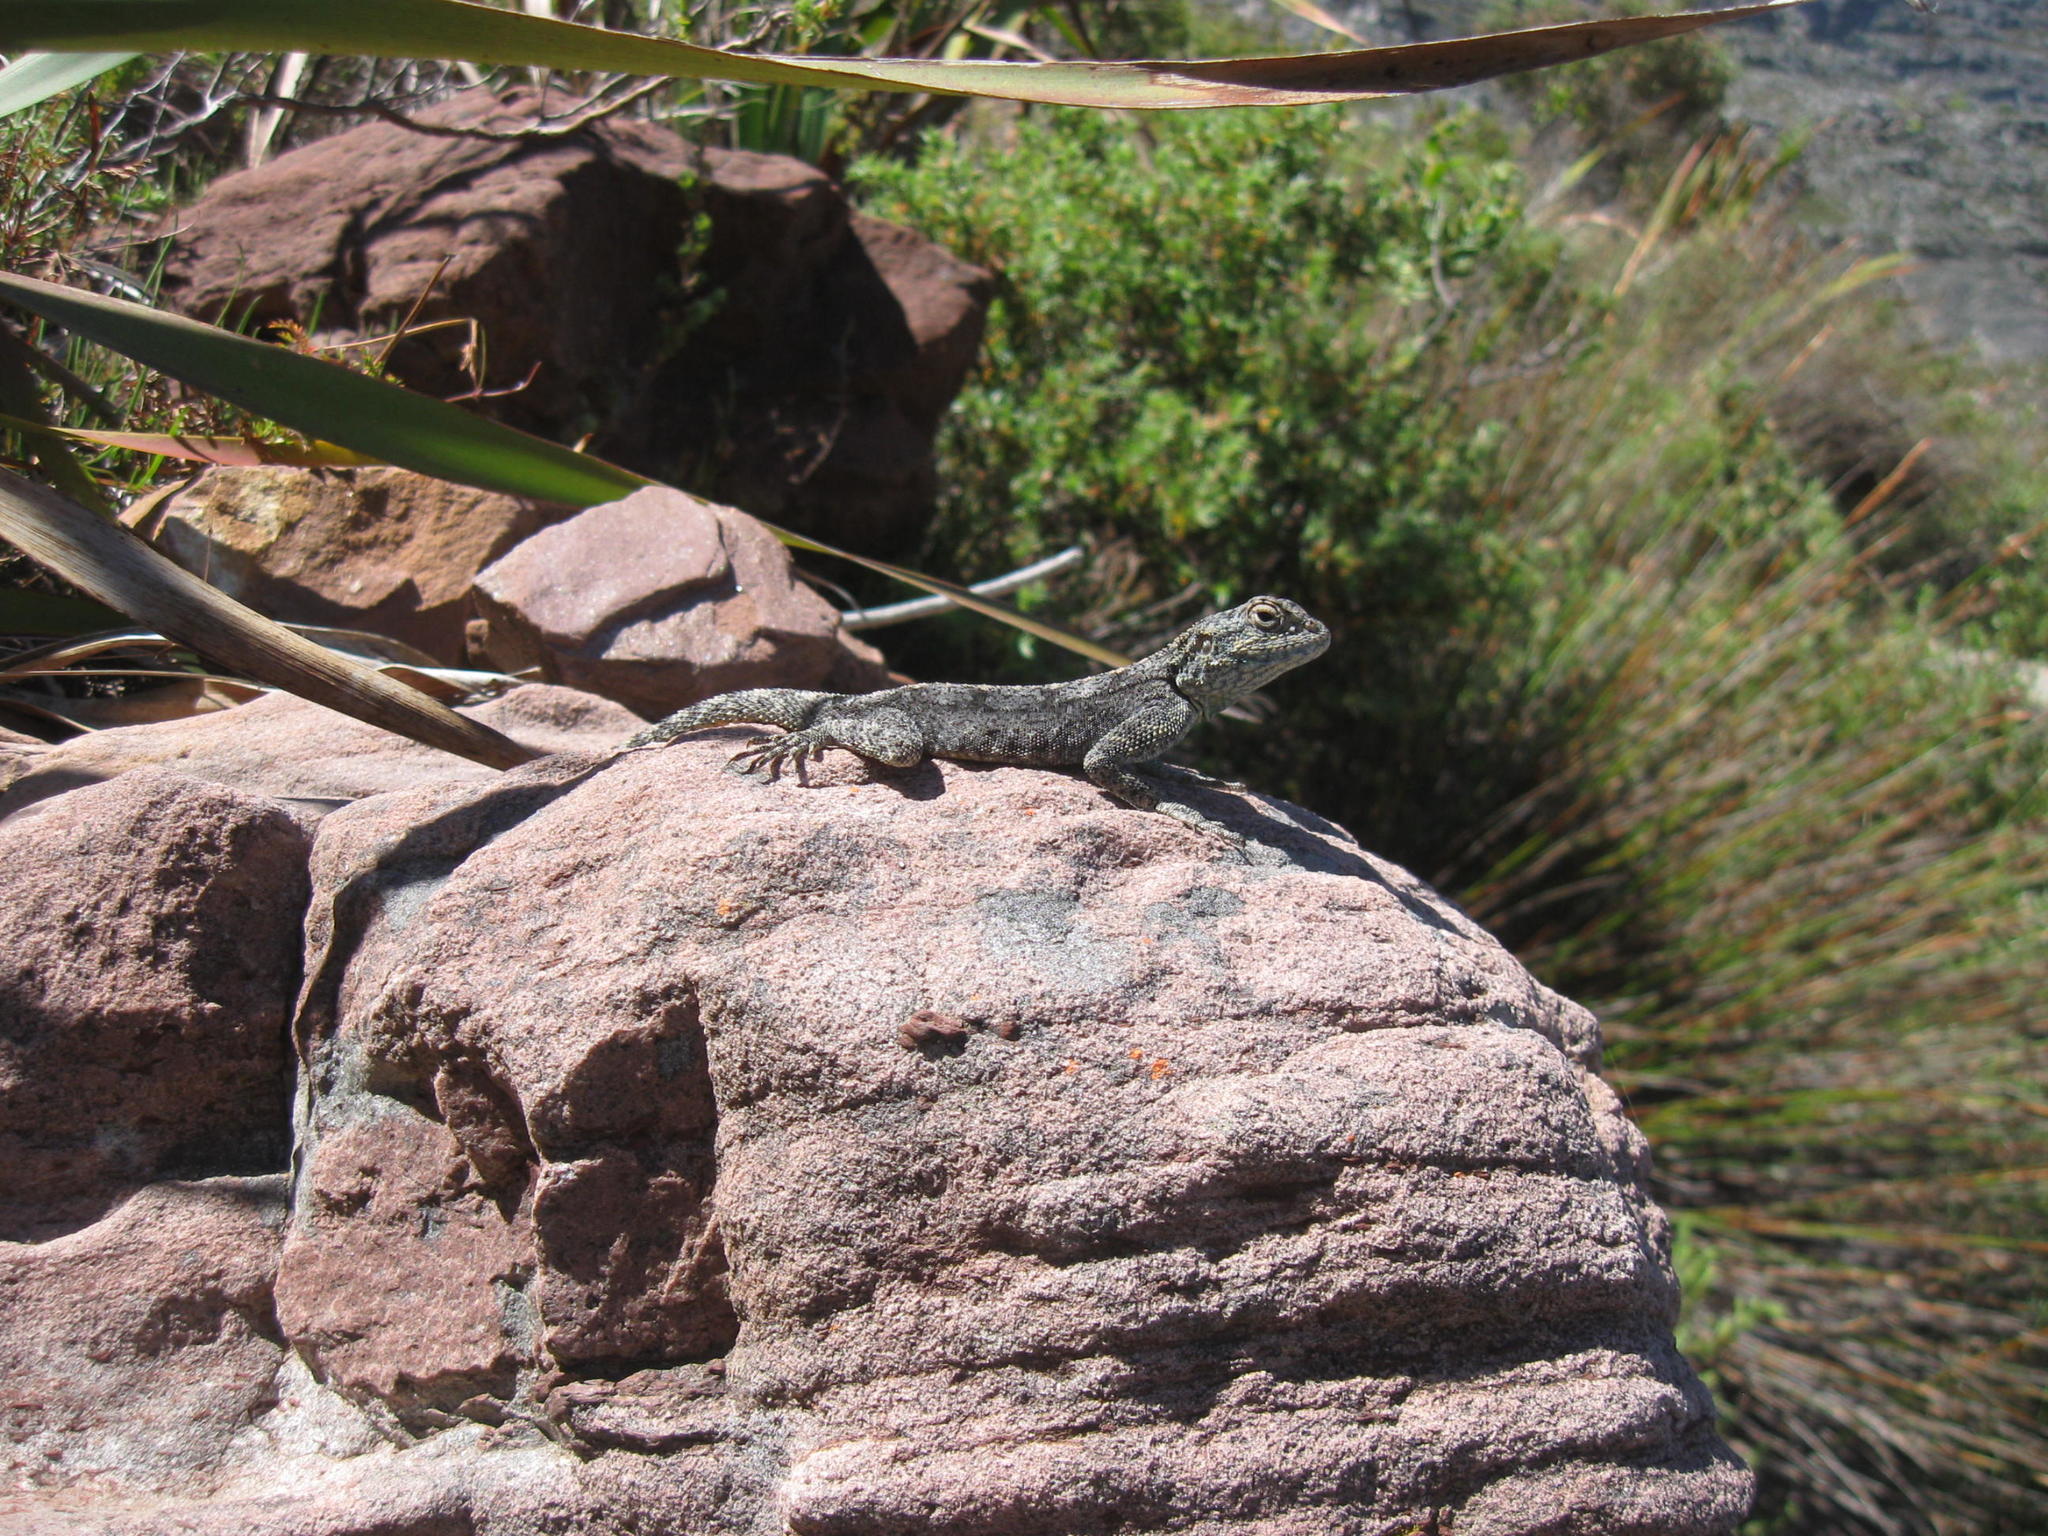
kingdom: Animalia
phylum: Chordata
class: Squamata
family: Agamidae
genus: Agama
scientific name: Agama atra
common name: Southern african rock agama
